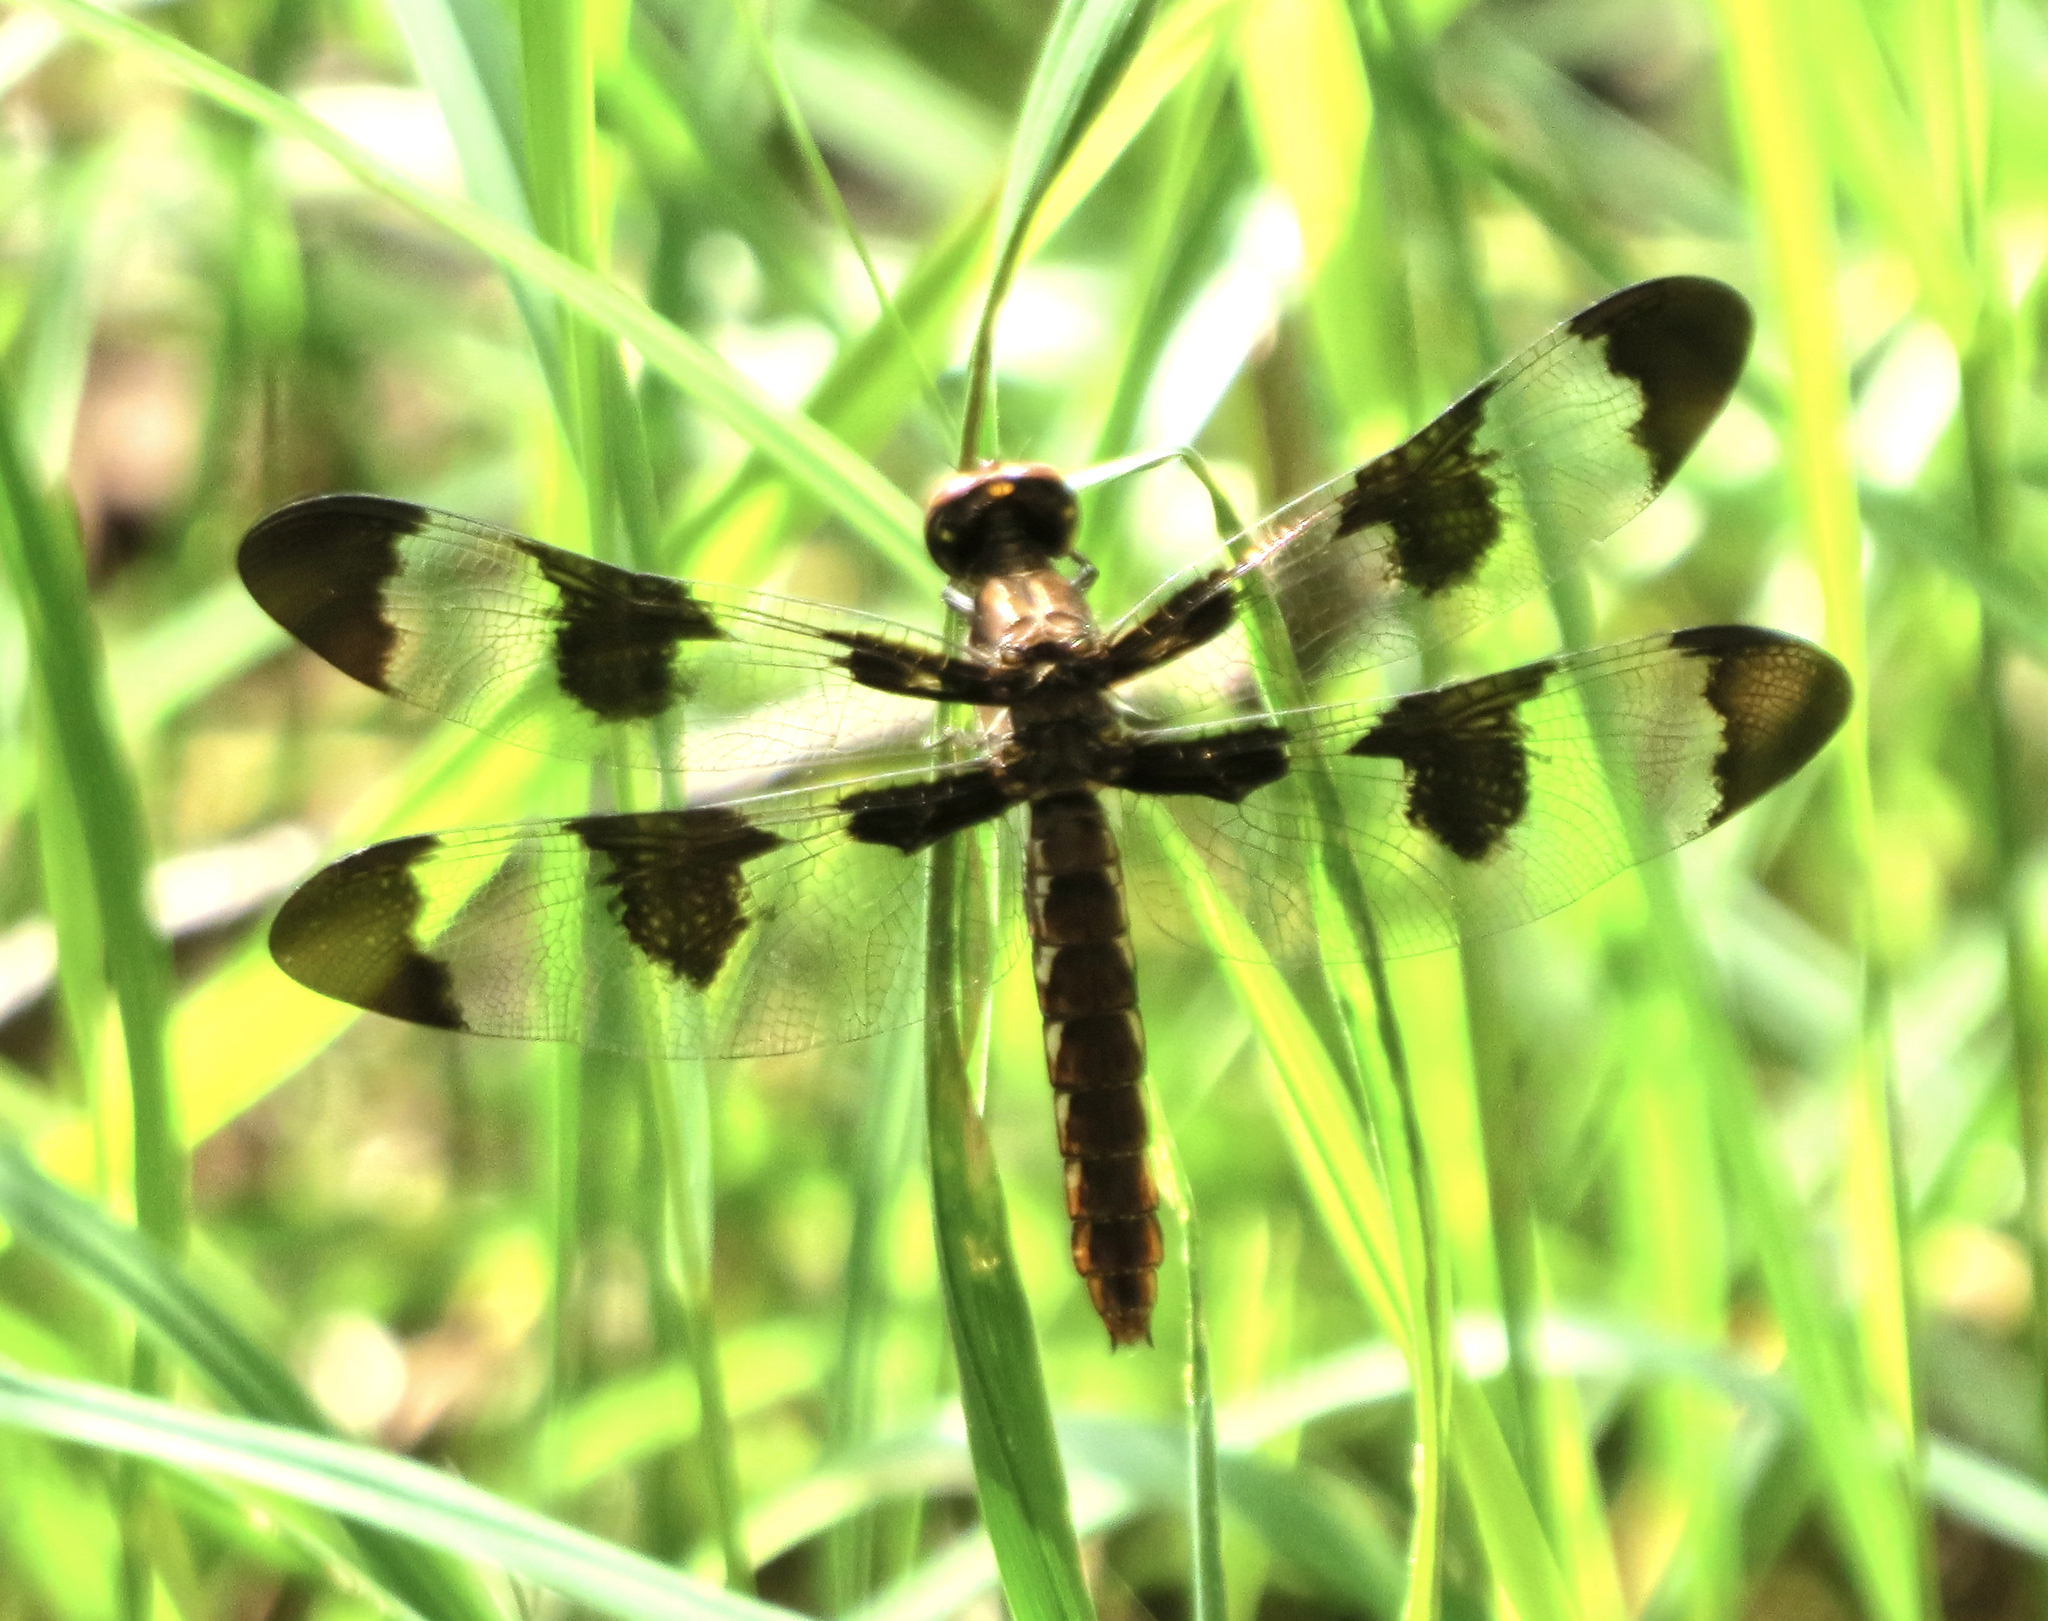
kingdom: Animalia
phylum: Arthropoda
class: Insecta
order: Odonata
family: Libellulidae
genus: Plathemis
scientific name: Plathemis lydia
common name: Common whitetail
